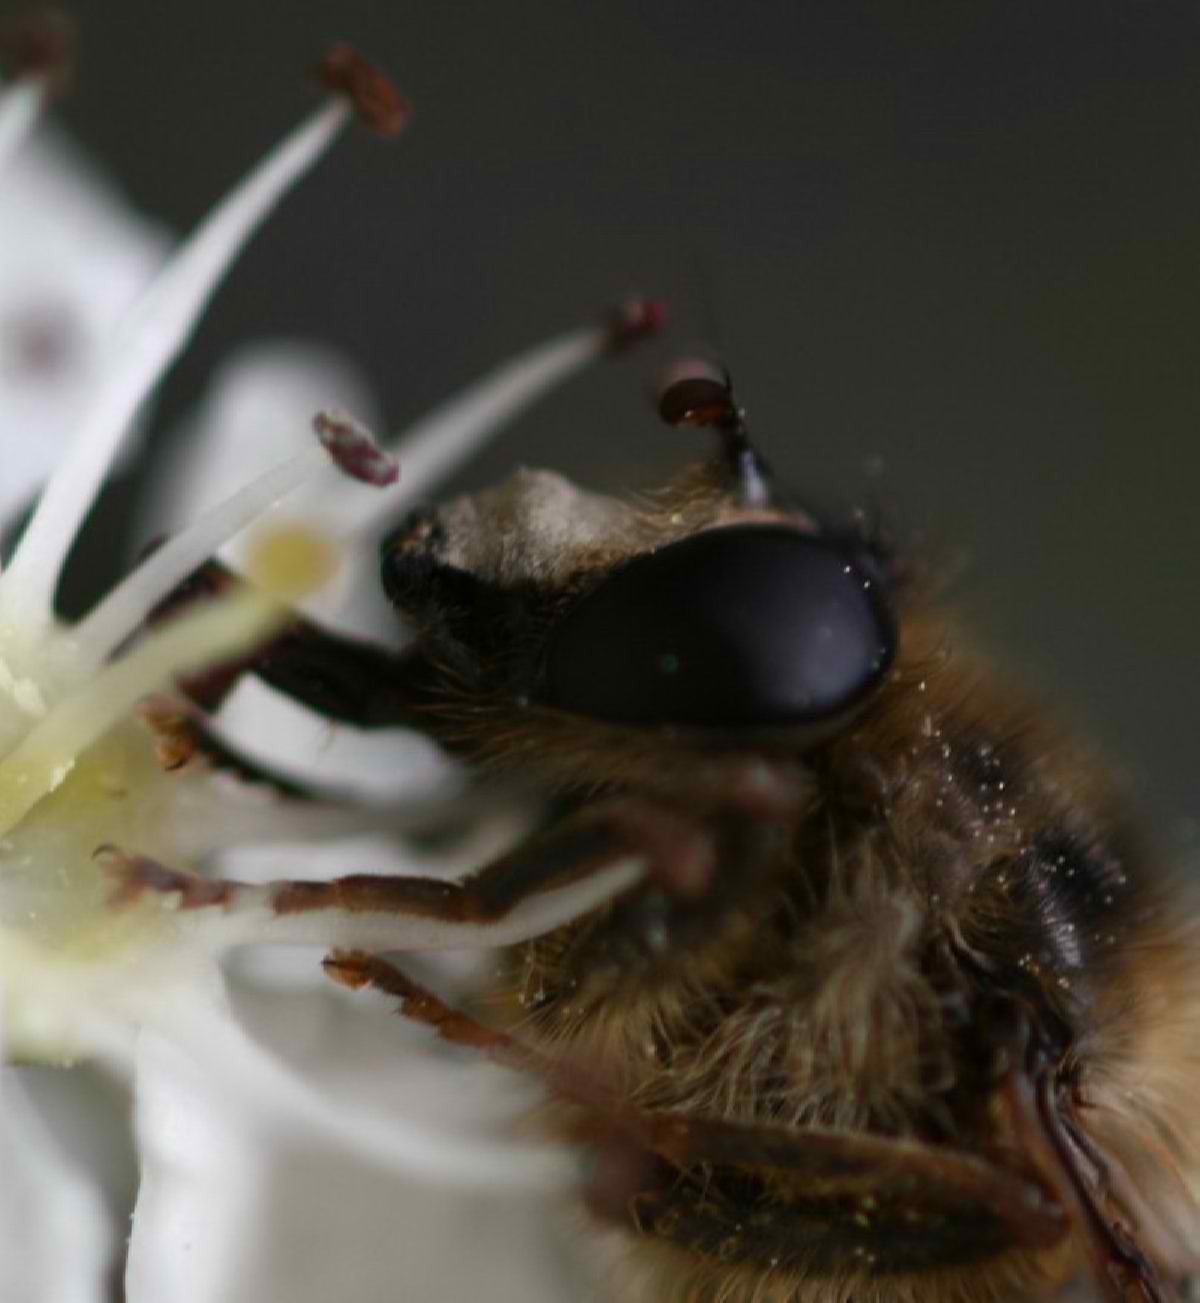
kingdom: Animalia
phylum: Arthropoda
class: Insecta
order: Diptera
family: Syrphidae
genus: Criorhina
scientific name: Criorhina pachymera
